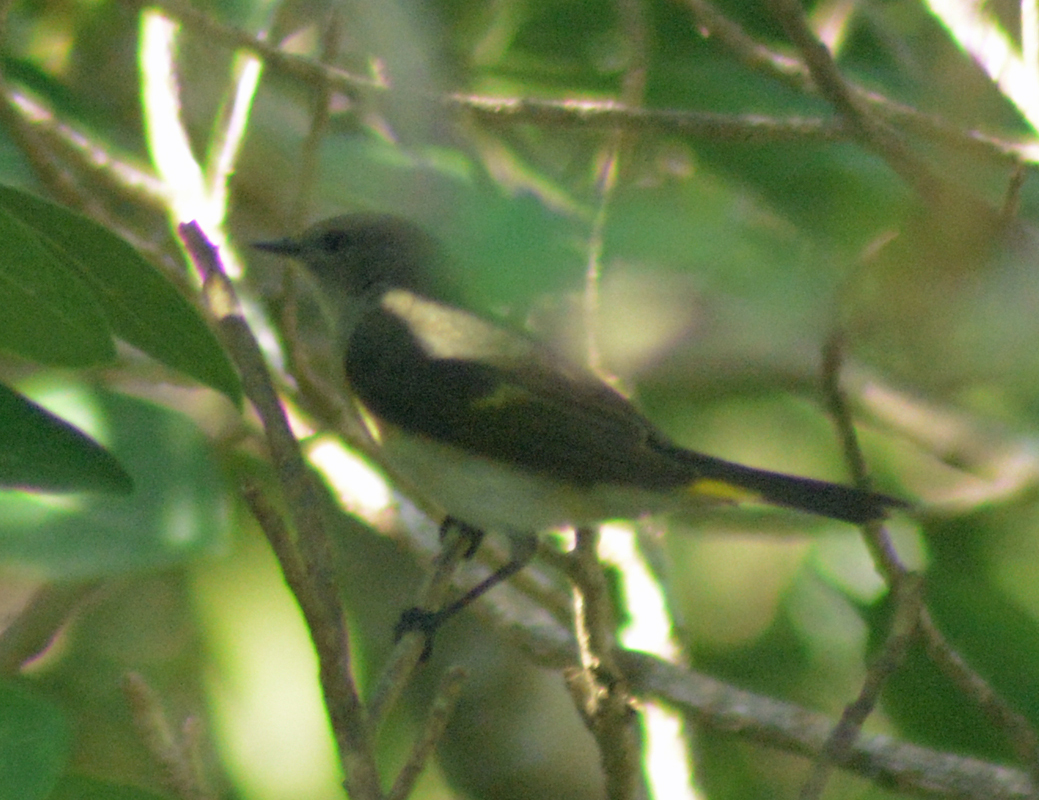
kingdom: Animalia
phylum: Chordata
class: Aves
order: Passeriformes
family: Parulidae
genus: Setophaga
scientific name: Setophaga ruticilla
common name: American redstart
